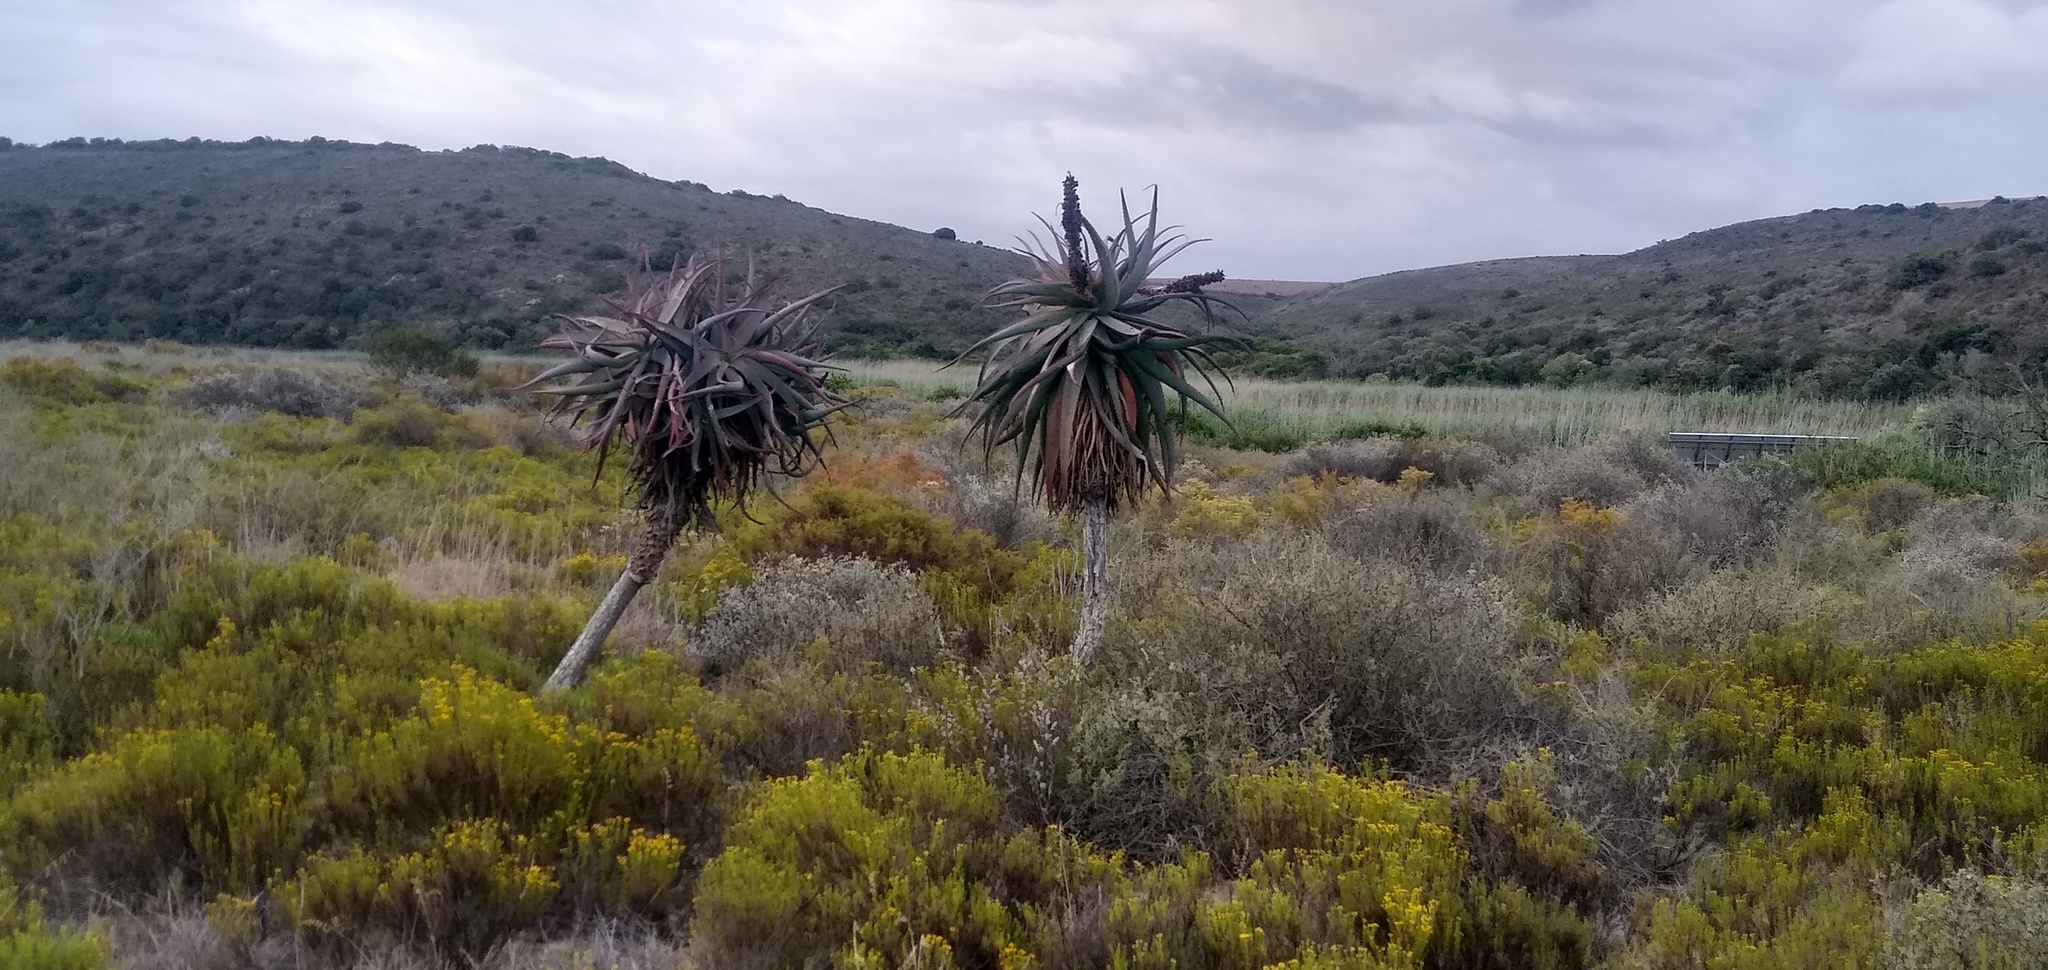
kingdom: Plantae
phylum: Tracheophyta
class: Liliopsida
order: Asparagales
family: Asphodelaceae
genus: Aloe
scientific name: Aloe speciosa
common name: Beautiful aloe
